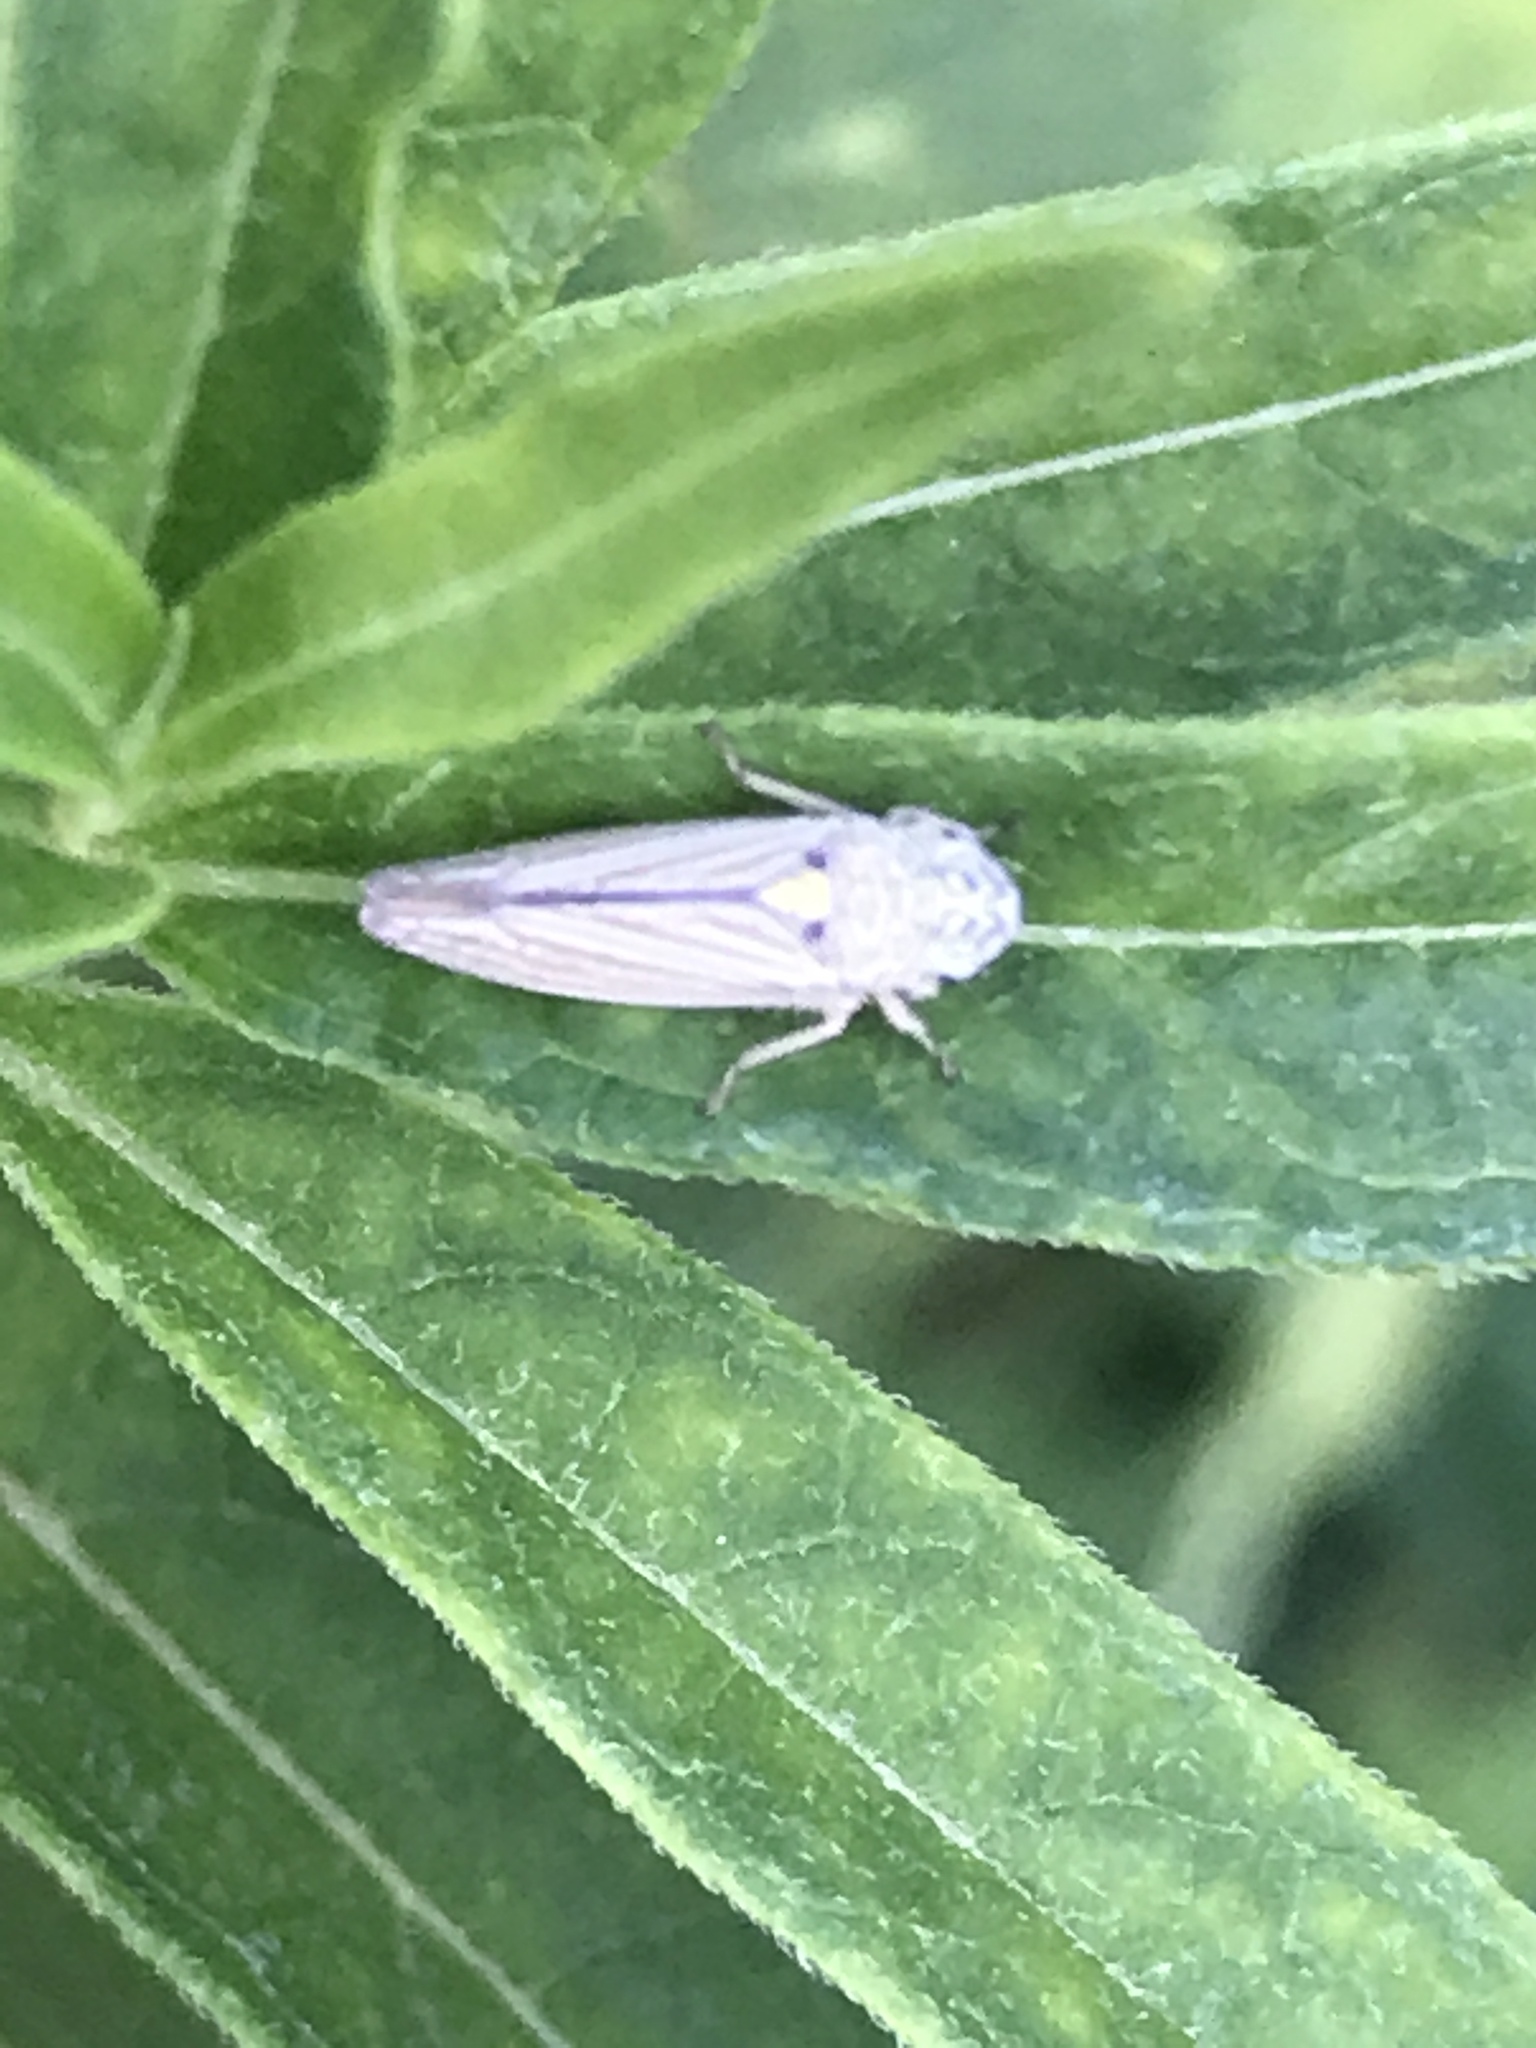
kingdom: Animalia
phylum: Arthropoda
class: Insecta
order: Hemiptera
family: Cicadellidae
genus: Neokolla
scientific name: Neokolla hieroglyphica
